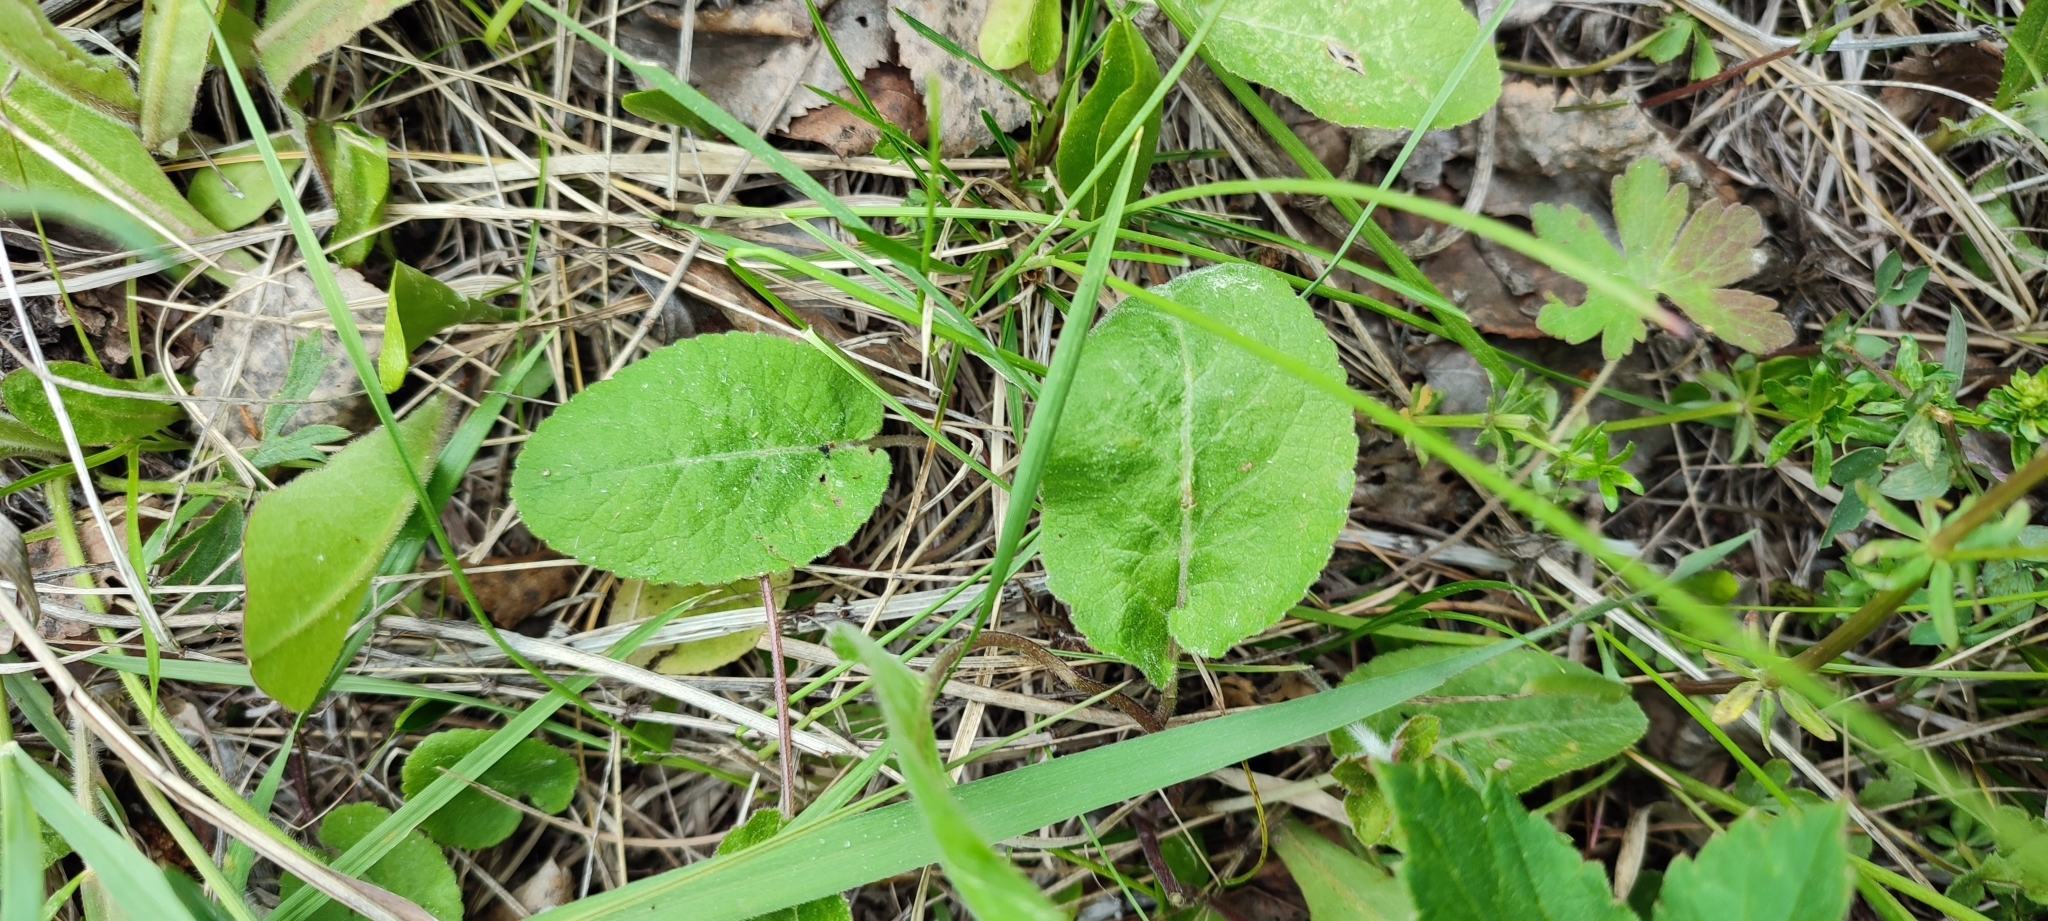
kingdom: Plantae
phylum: Tracheophyta
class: Magnoliopsida
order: Asterales
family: Campanulaceae
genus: Campanula
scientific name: Campanula glomerata
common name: Clustered bellflower
